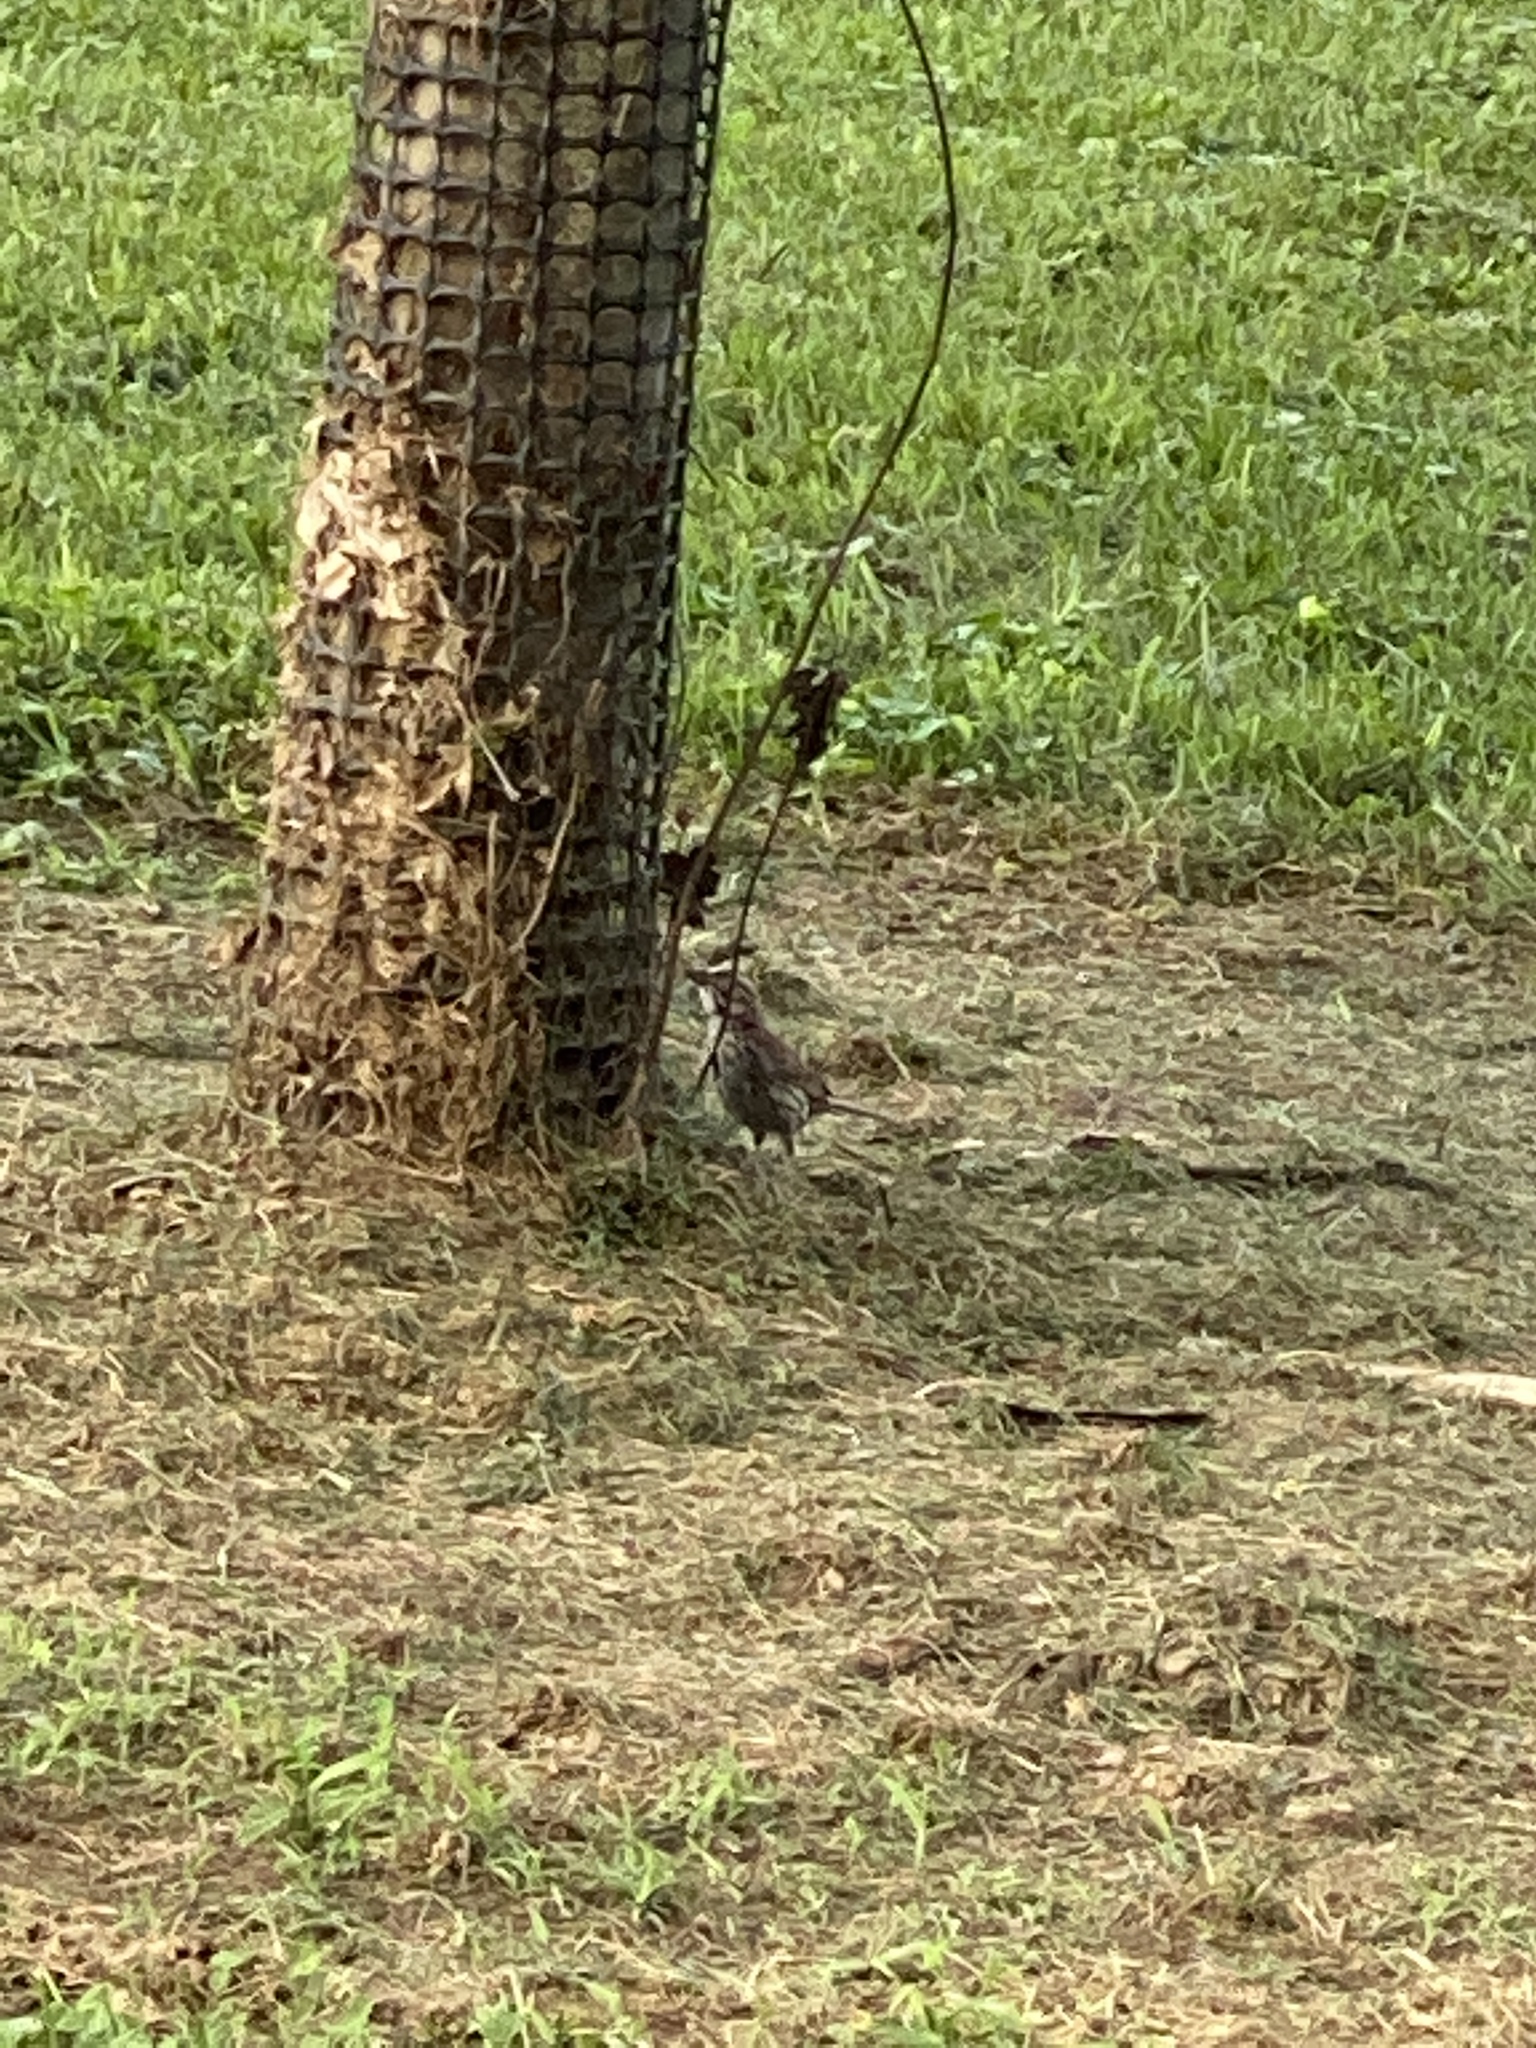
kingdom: Animalia
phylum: Chordata
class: Aves
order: Passeriformes
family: Passerellidae
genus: Melospiza
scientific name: Melospiza melodia
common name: Song sparrow
